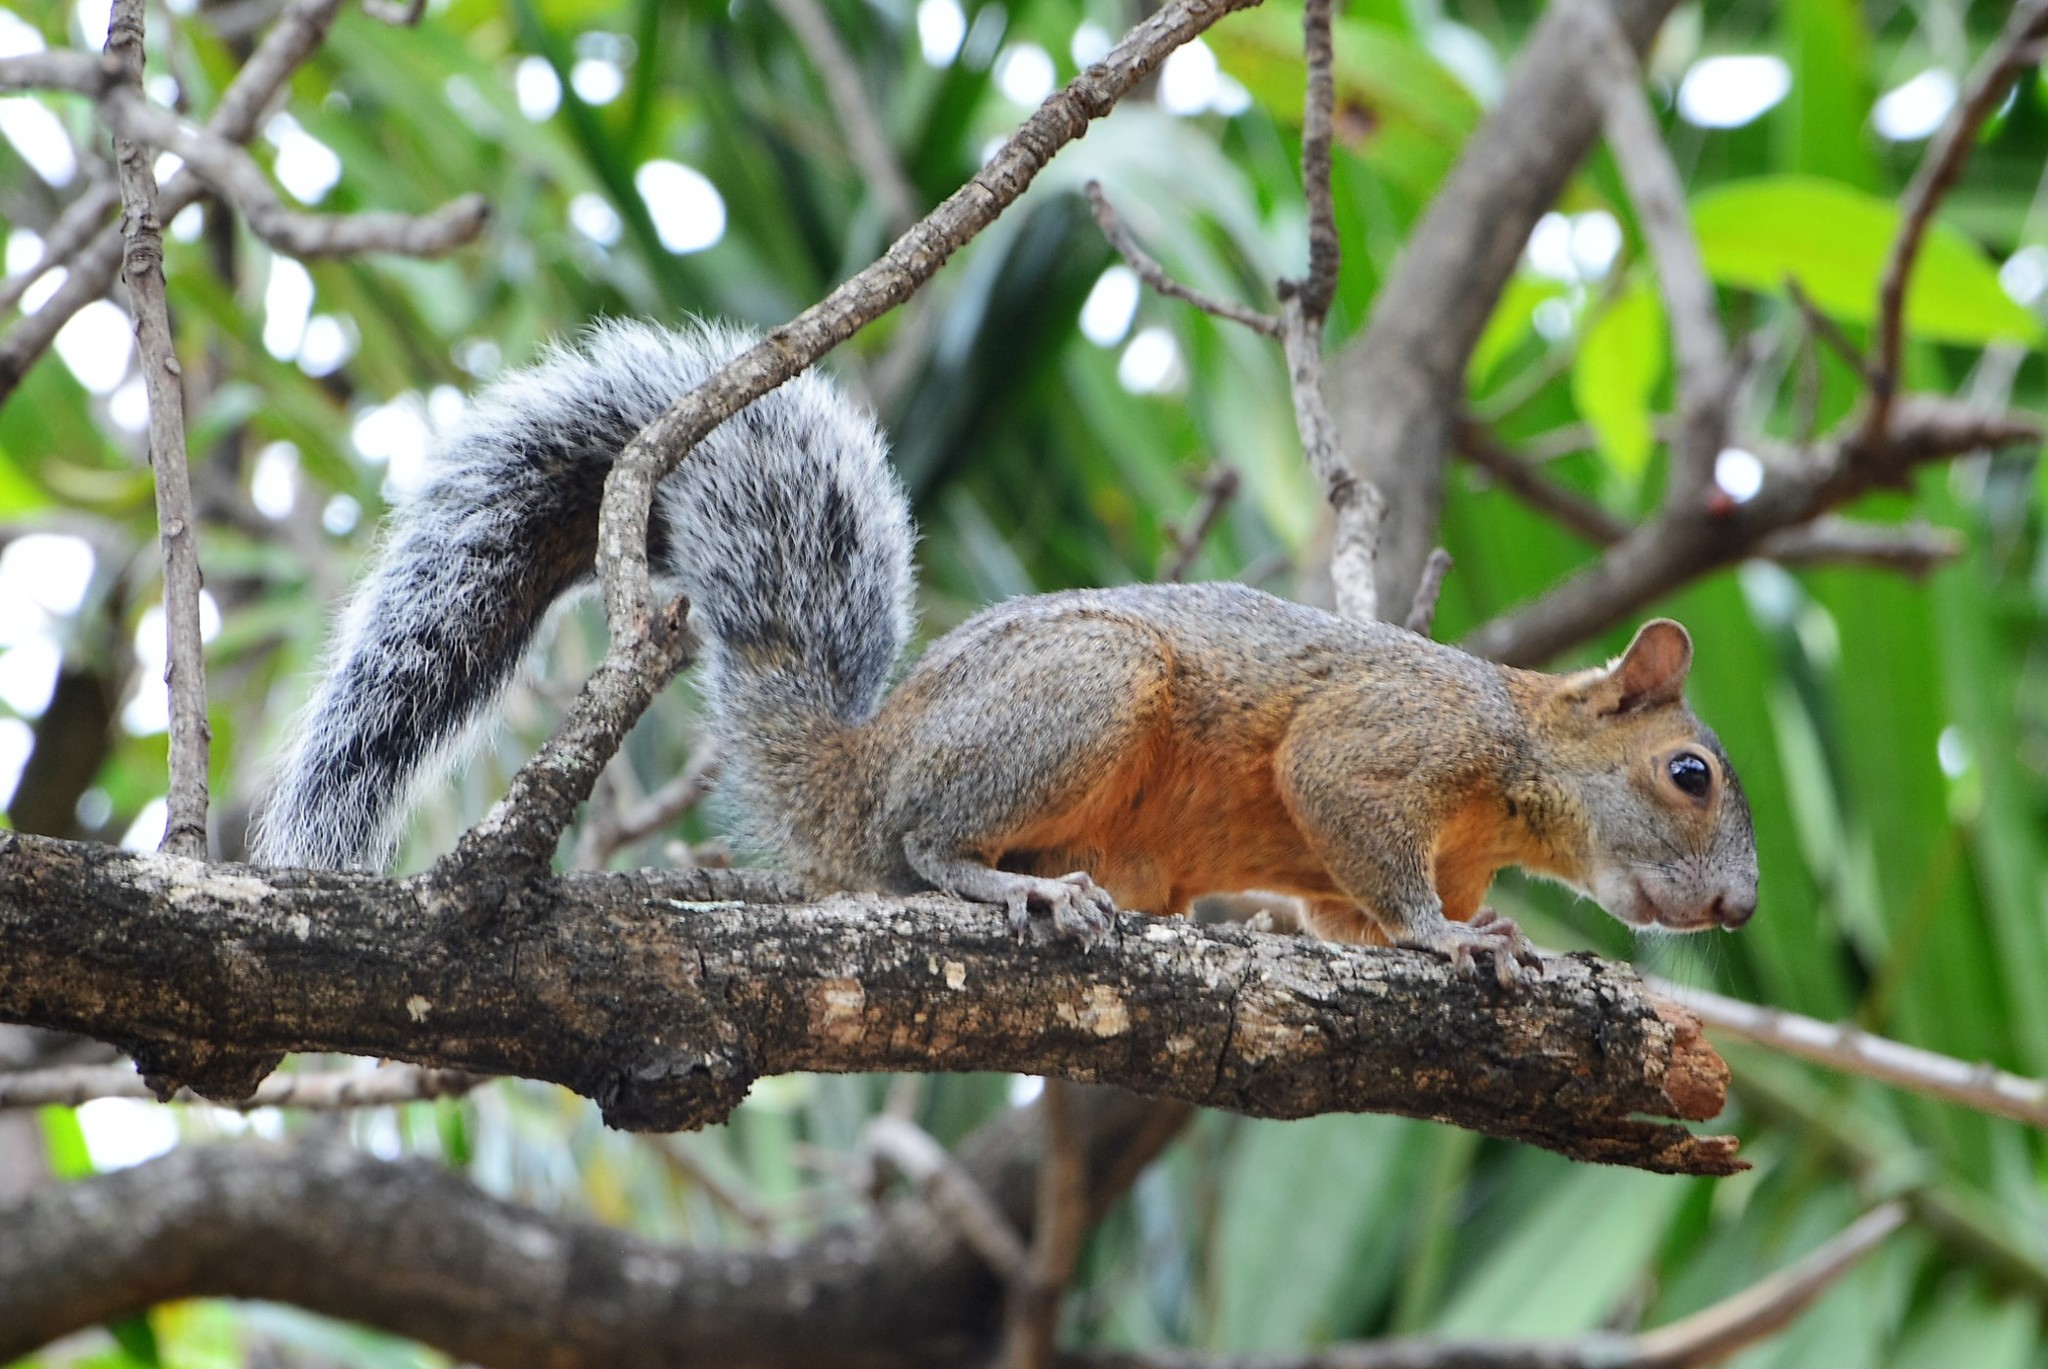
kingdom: Animalia
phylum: Chordata
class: Mammalia
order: Rodentia
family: Sciuridae
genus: Sciurus
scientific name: Sciurus aureogaster
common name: Red-bellied squirrel
